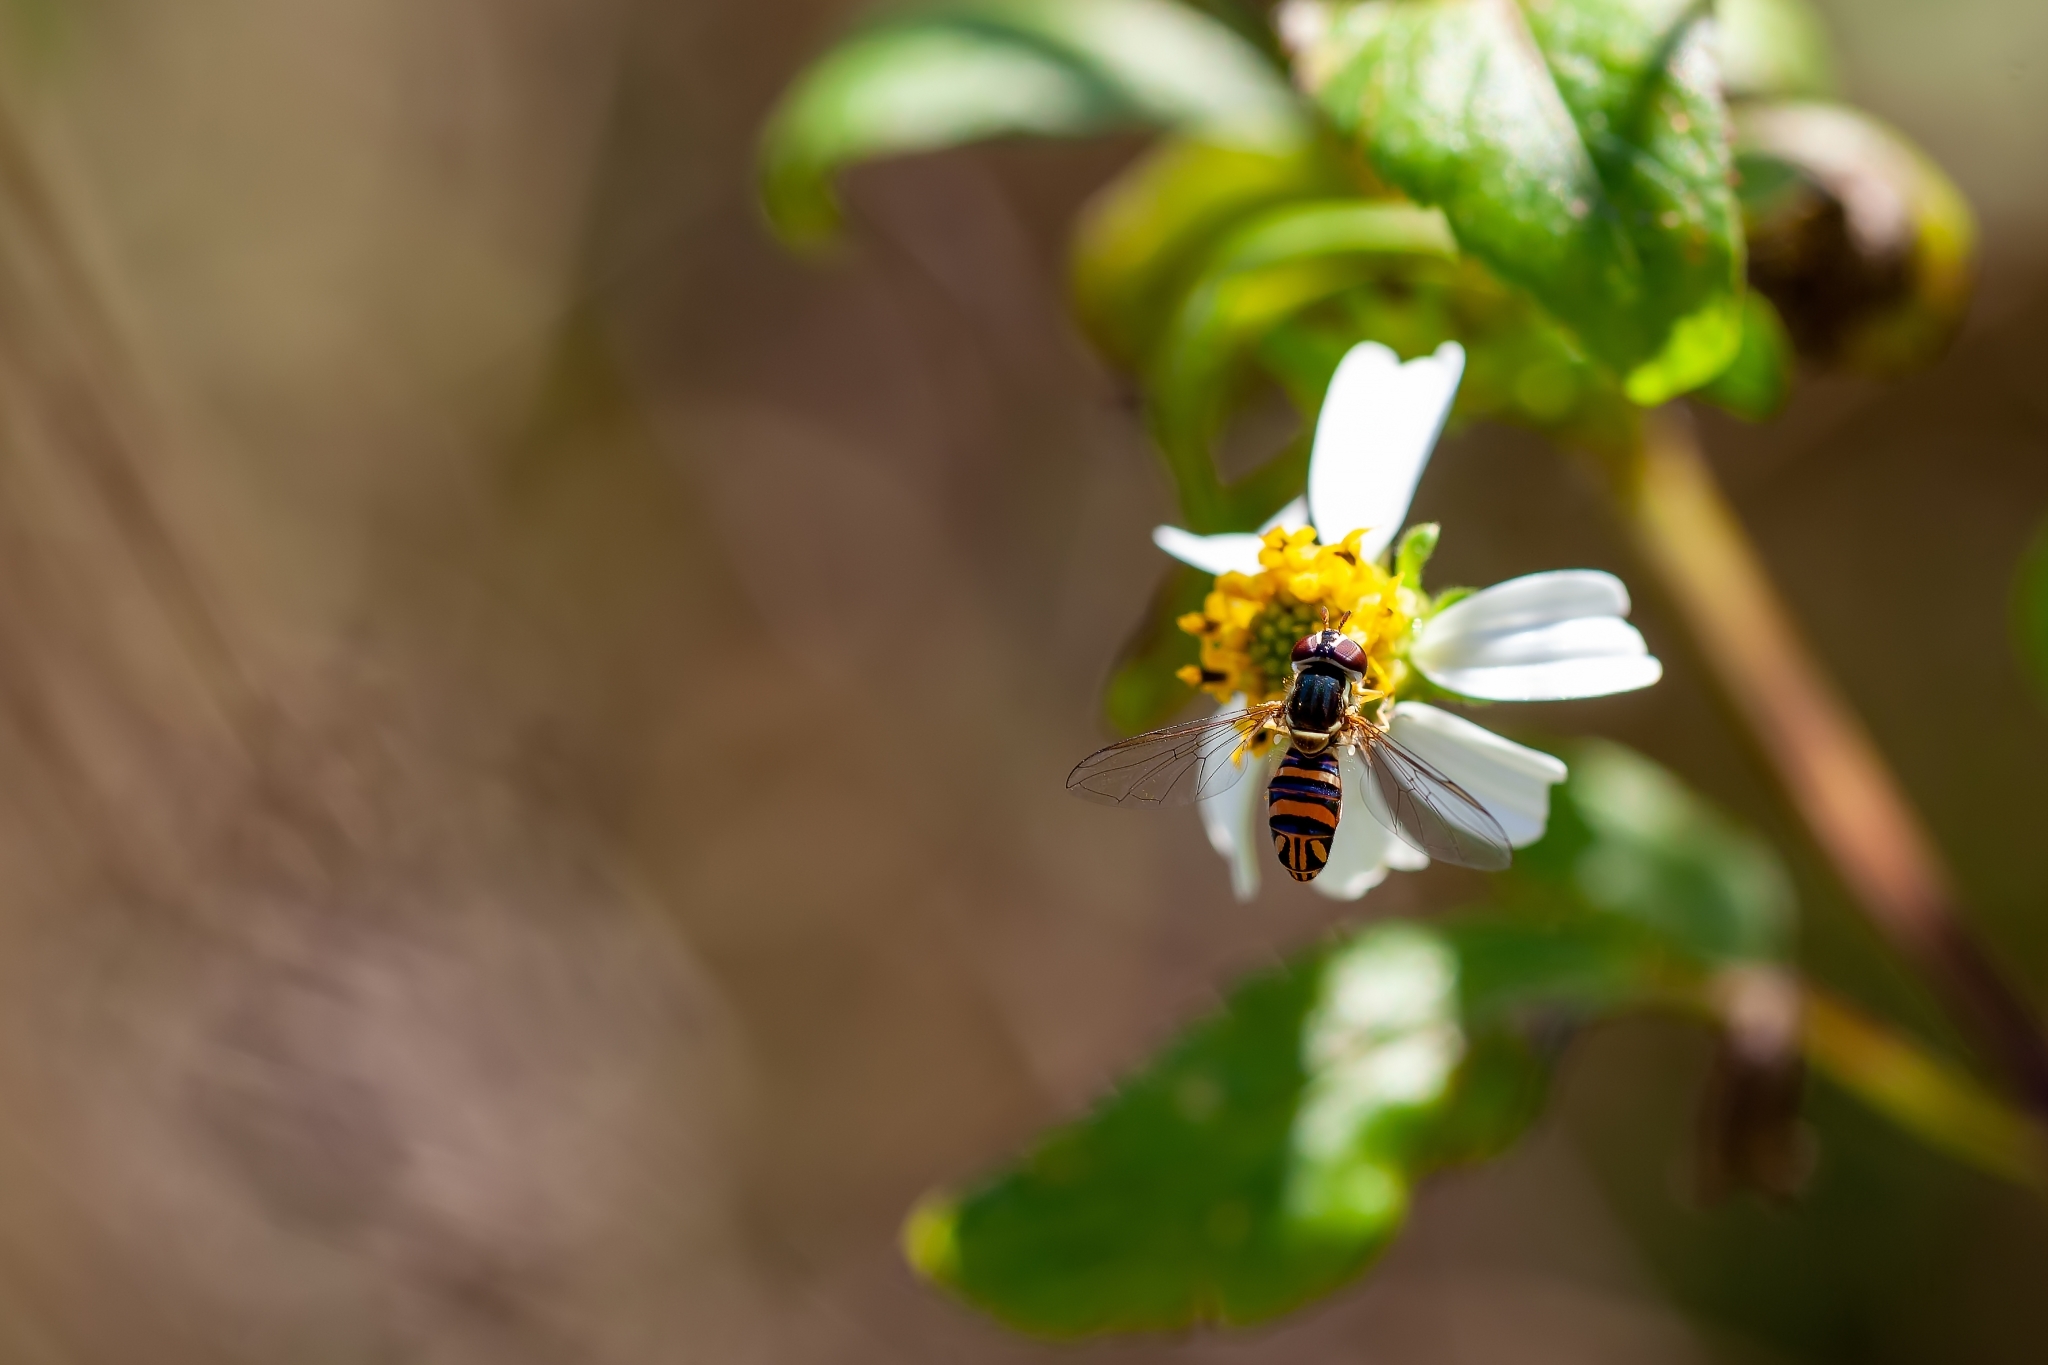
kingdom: Animalia
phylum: Arthropoda
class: Insecta
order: Diptera
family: Syrphidae
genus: Allograpta
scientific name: Allograpta obliqua
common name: Common oblique syrphid
